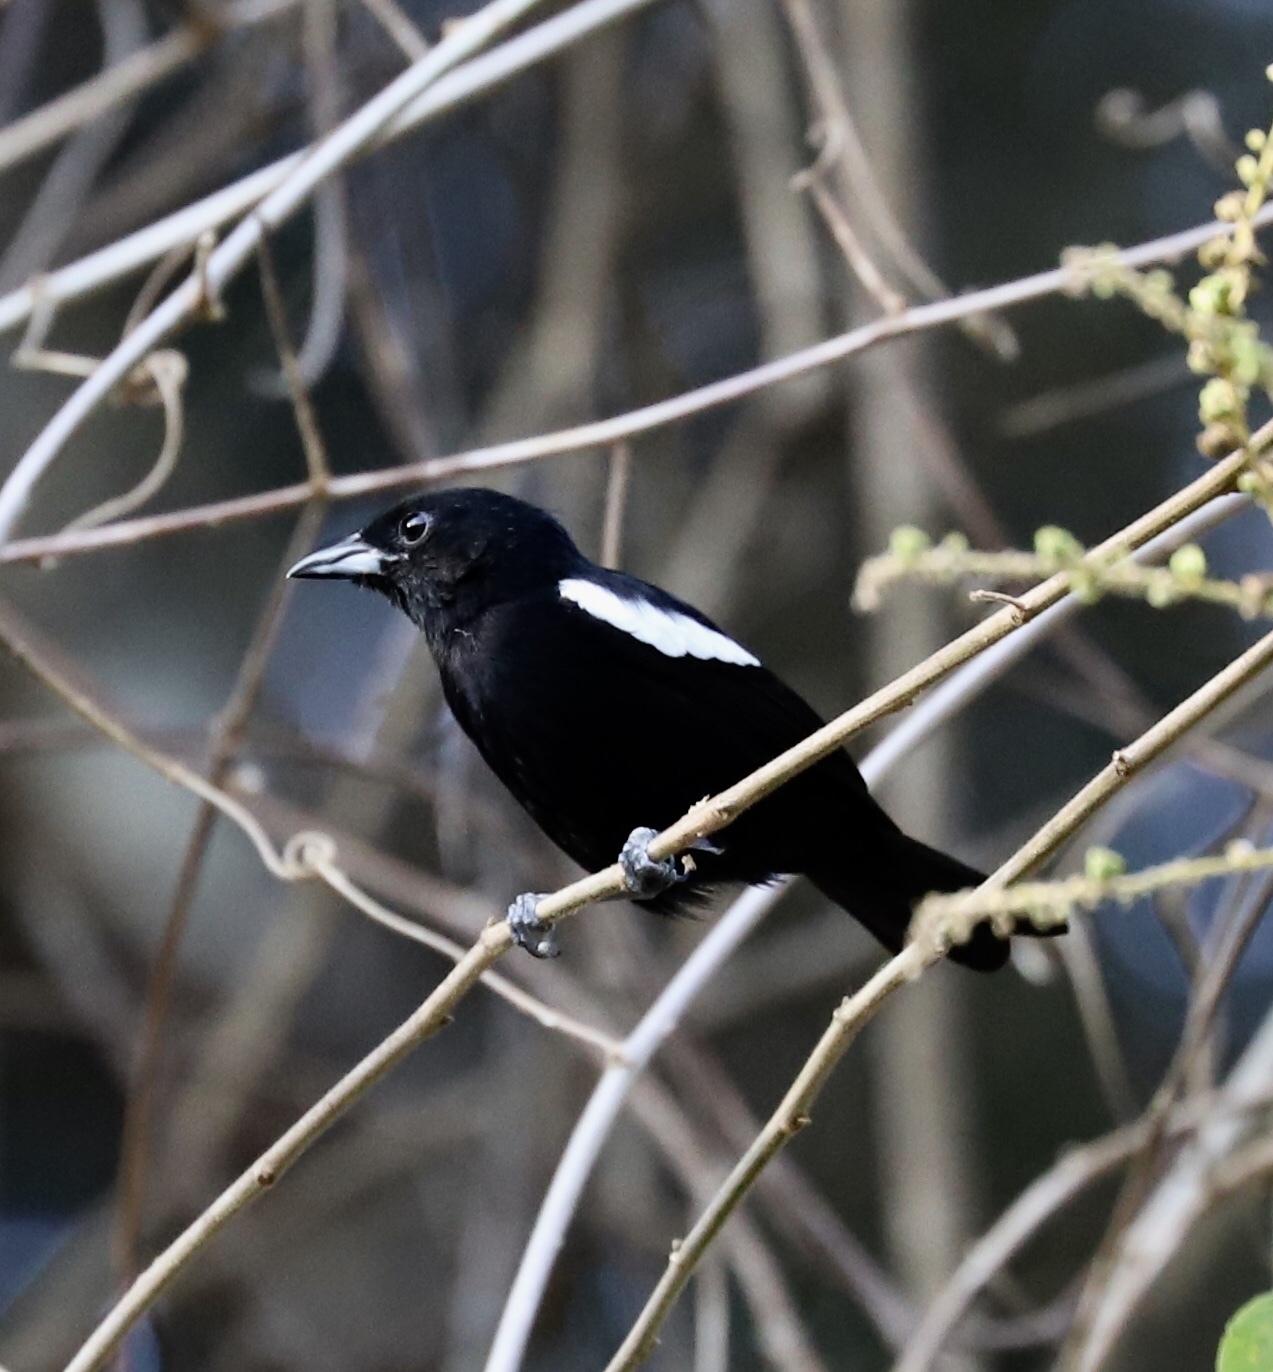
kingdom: Animalia
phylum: Chordata
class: Aves
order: Passeriformes
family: Thraupidae
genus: Loriotus
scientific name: Loriotus luctuosus
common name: White-shouldered tanager
